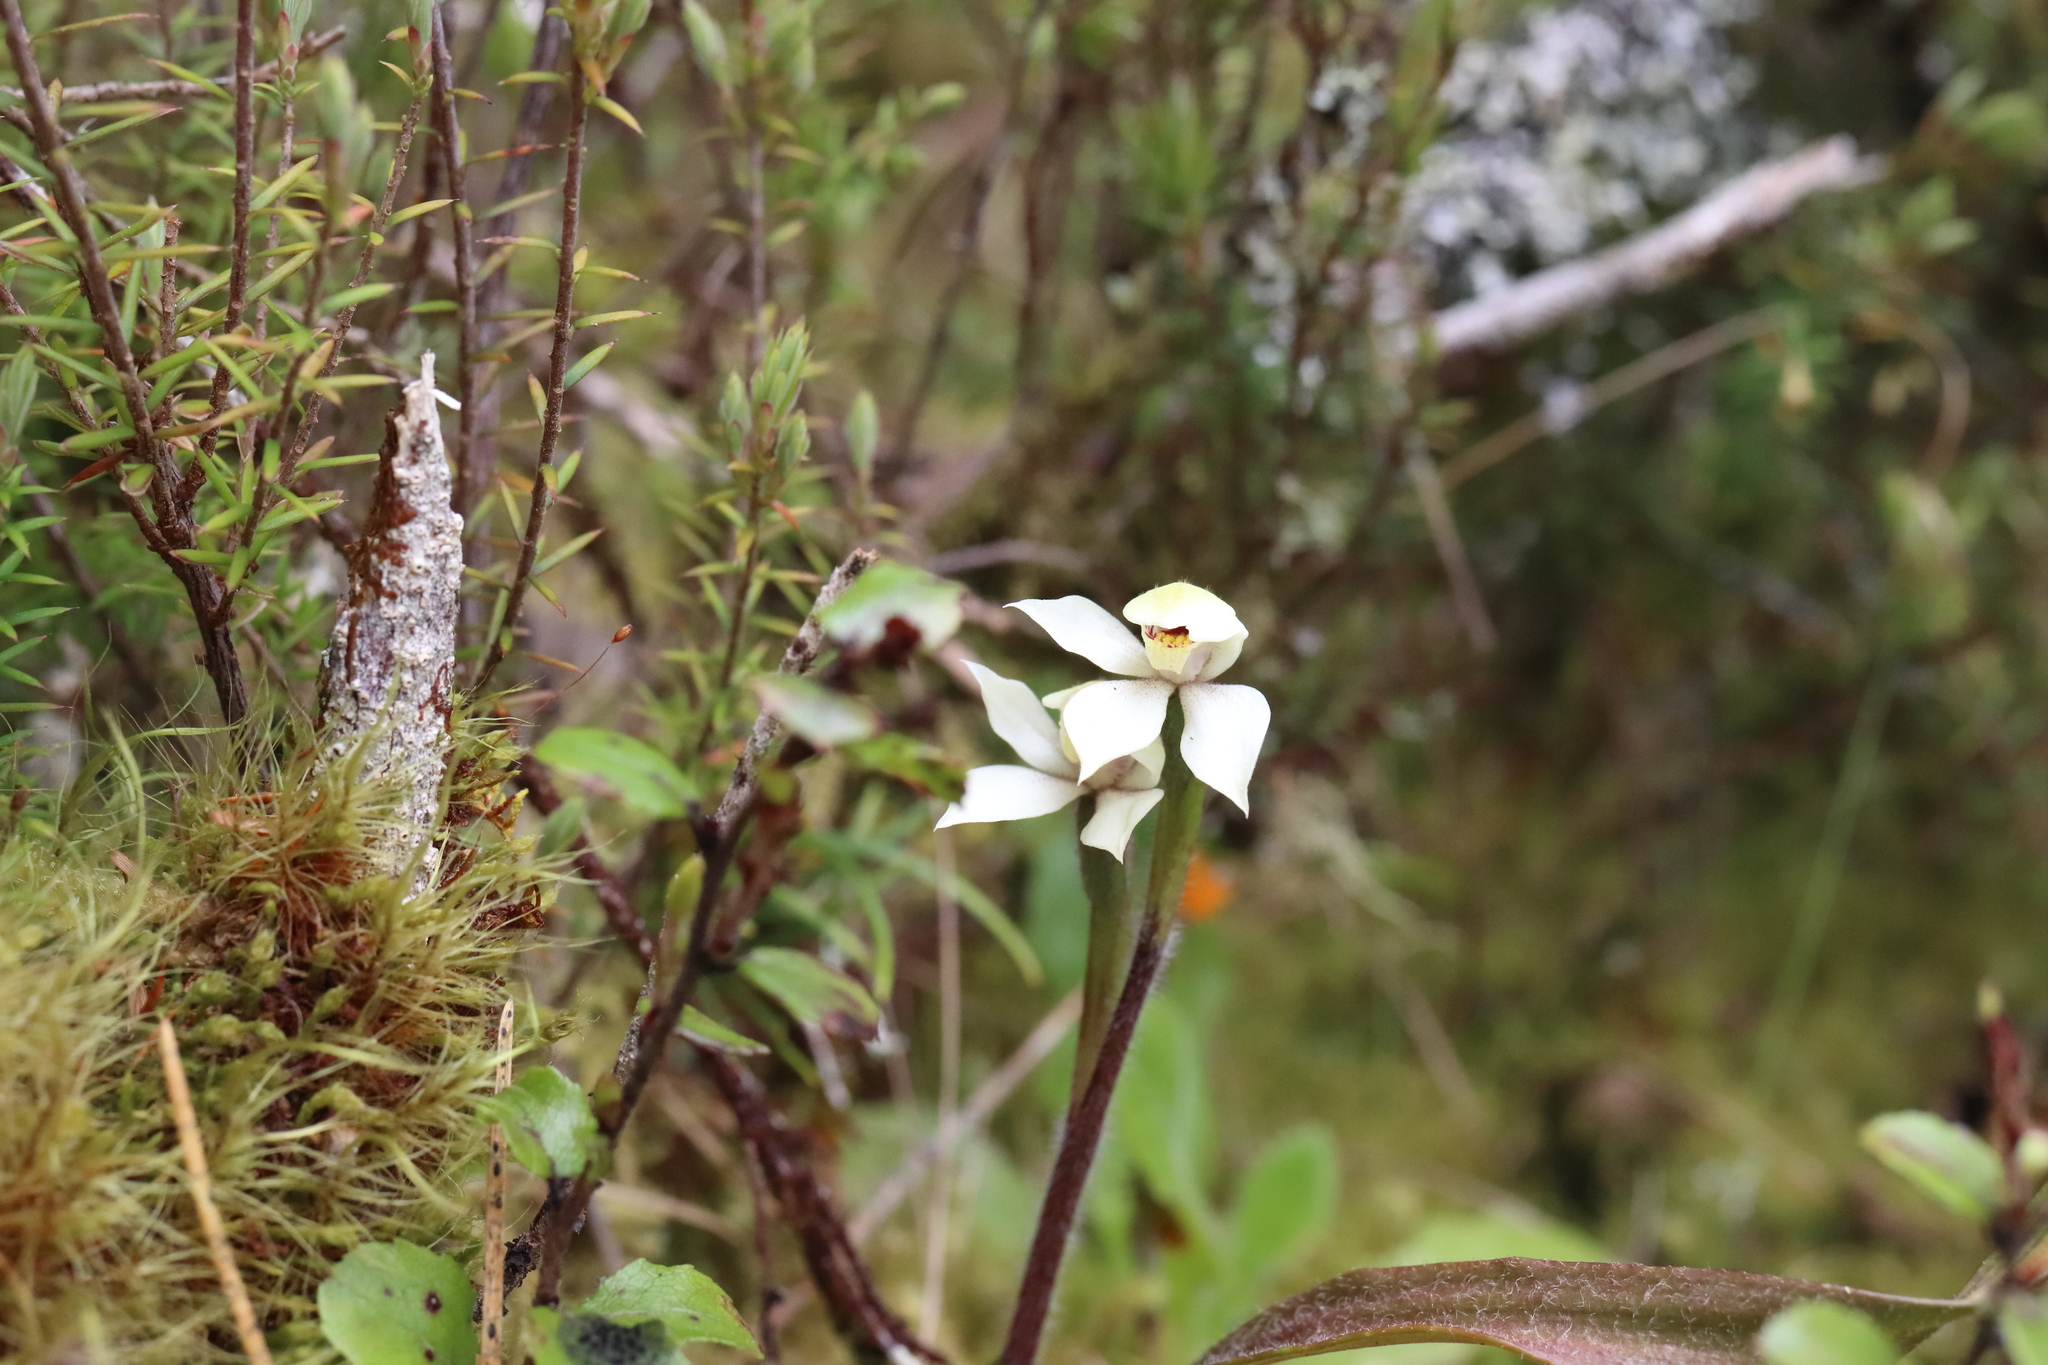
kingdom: Plantae
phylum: Tracheophyta
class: Liliopsida
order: Asparagales
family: Orchidaceae
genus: Caladenia
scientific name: Caladenia lyallii
